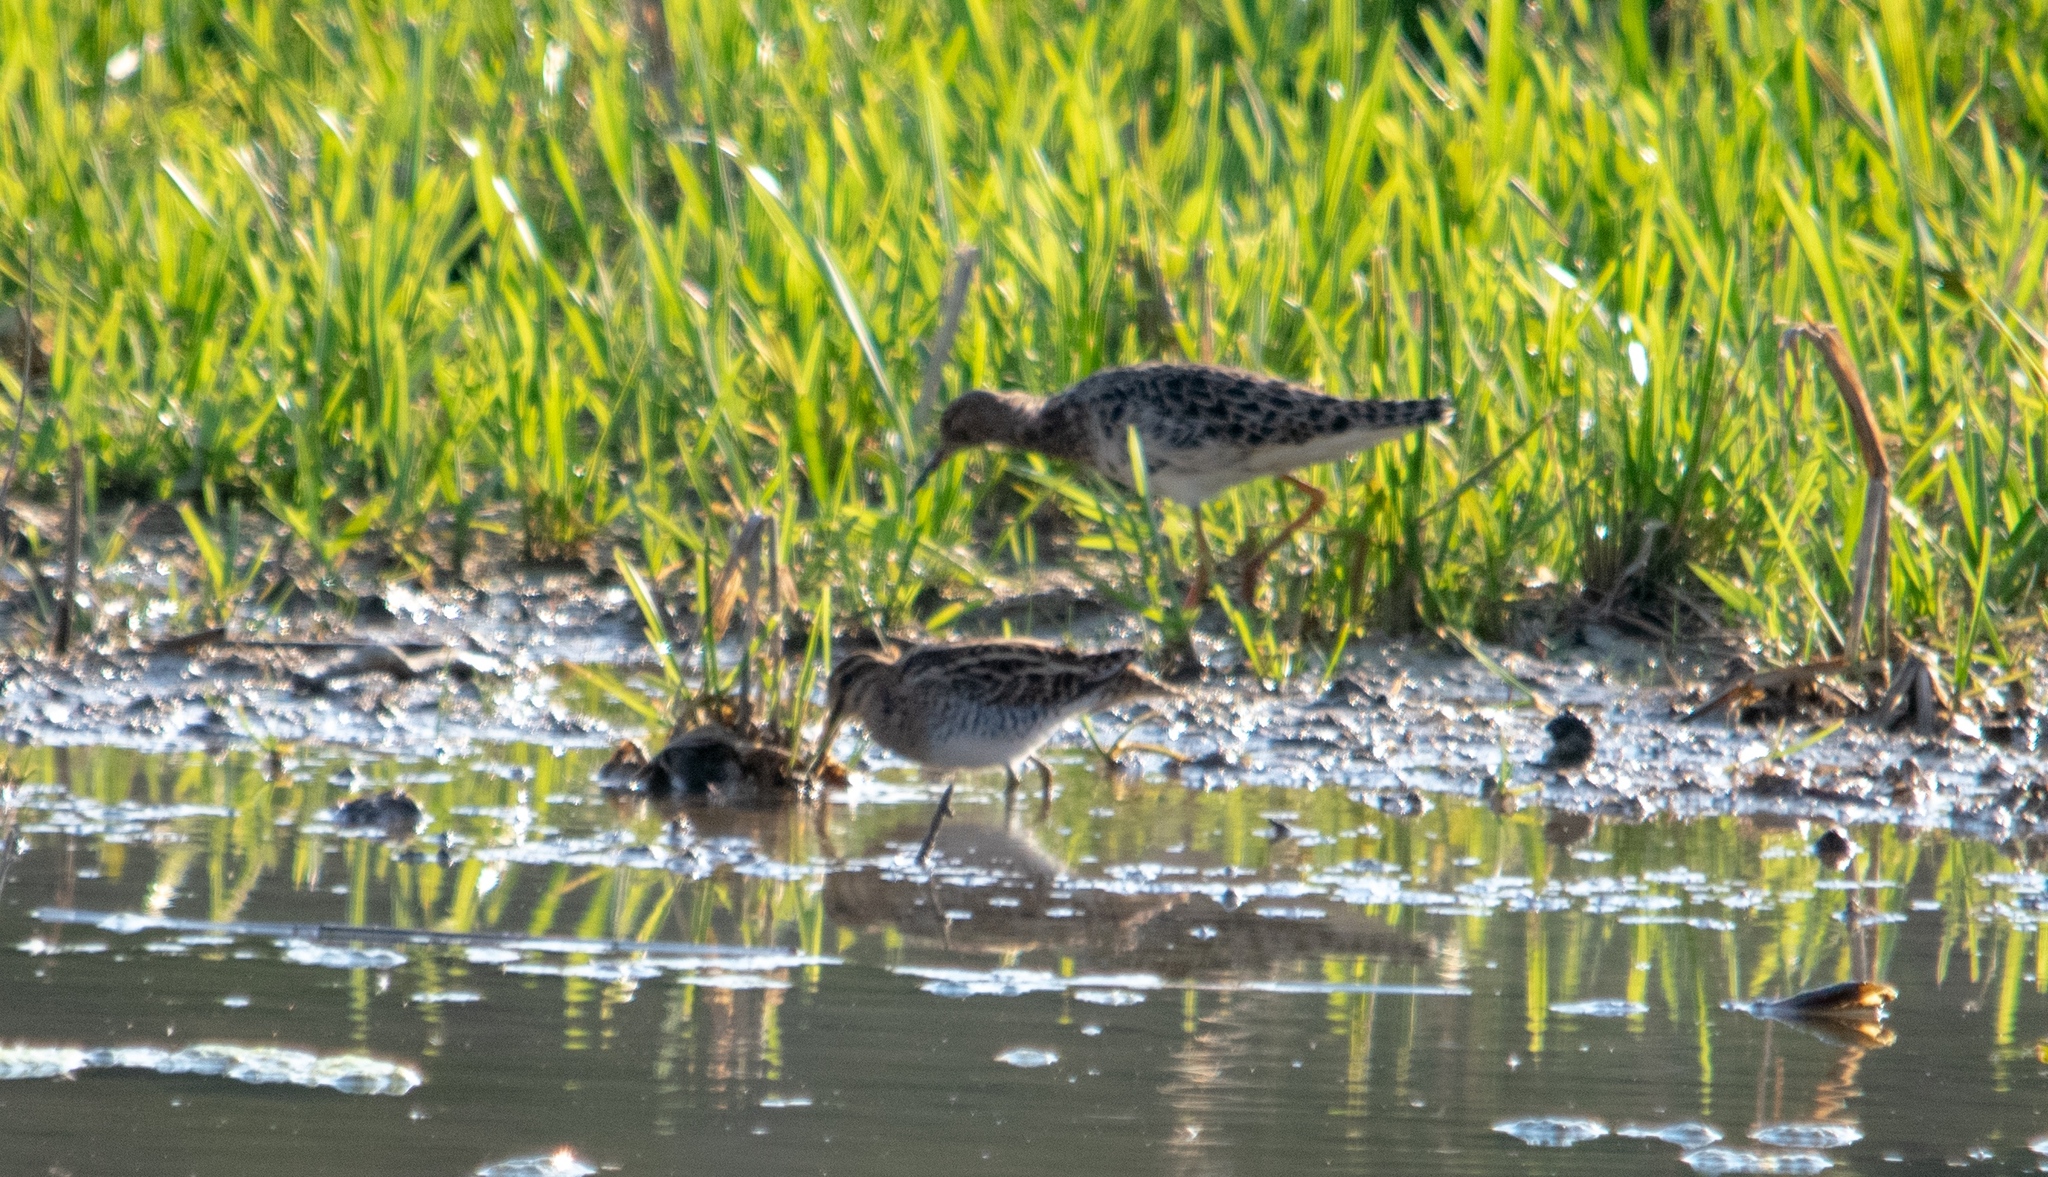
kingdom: Animalia
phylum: Chordata
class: Aves
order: Charadriiformes
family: Scolopacidae
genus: Gallinago
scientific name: Gallinago gallinago
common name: Common snipe
